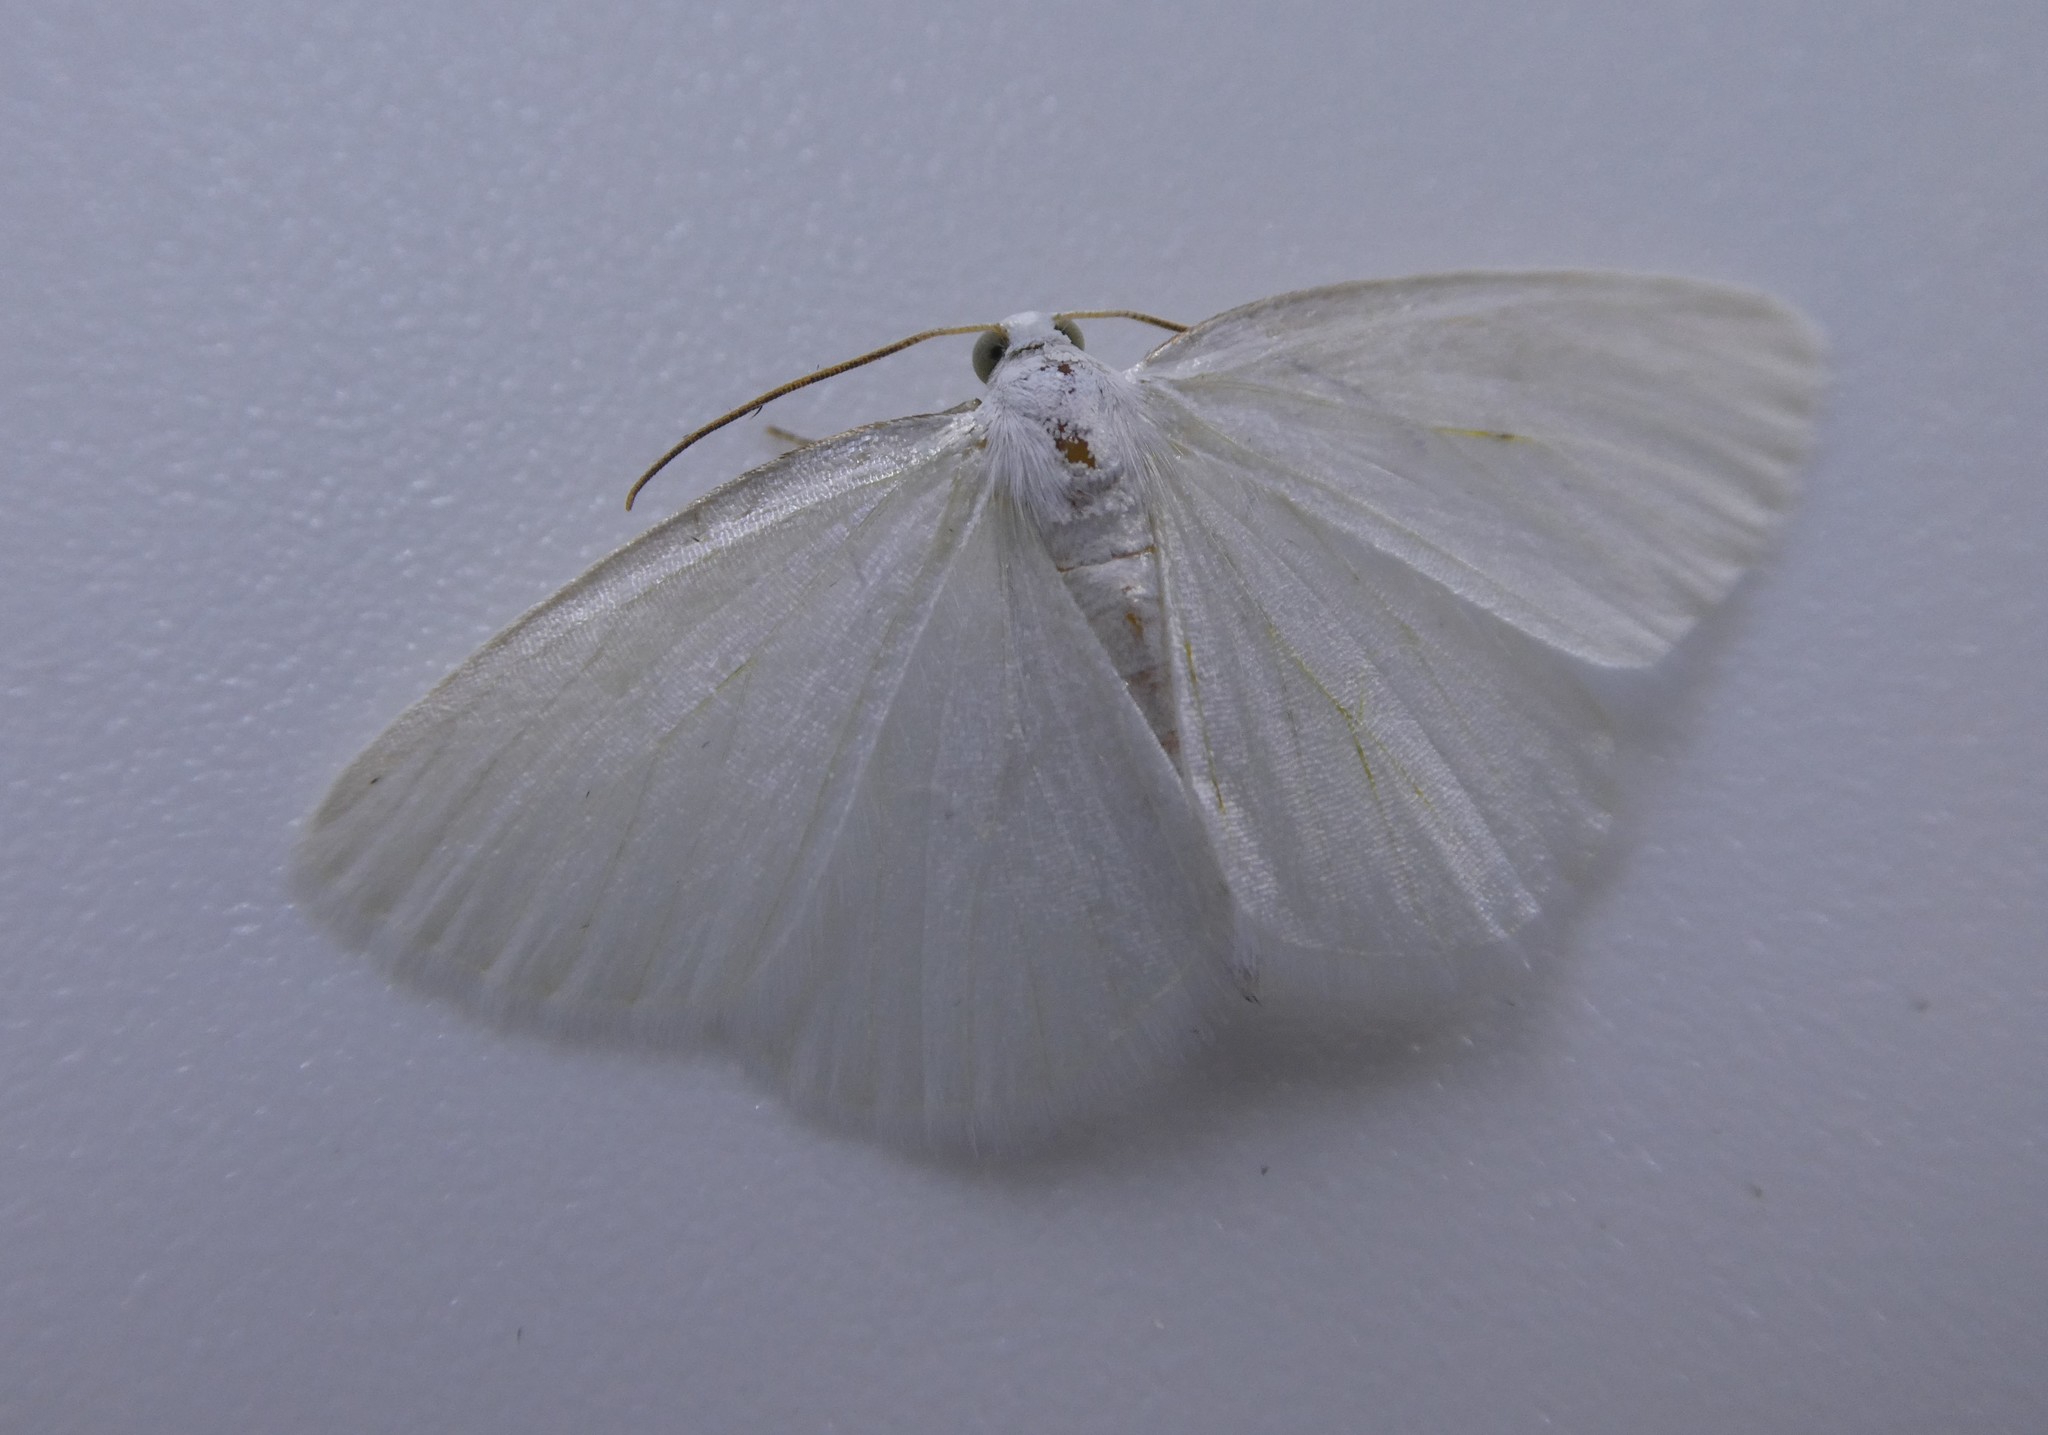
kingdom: Animalia
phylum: Arthropoda
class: Insecta
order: Lepidoptera
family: Geometridae
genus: Lomographa
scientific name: Lomographa vestaliata
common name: White spring moth
